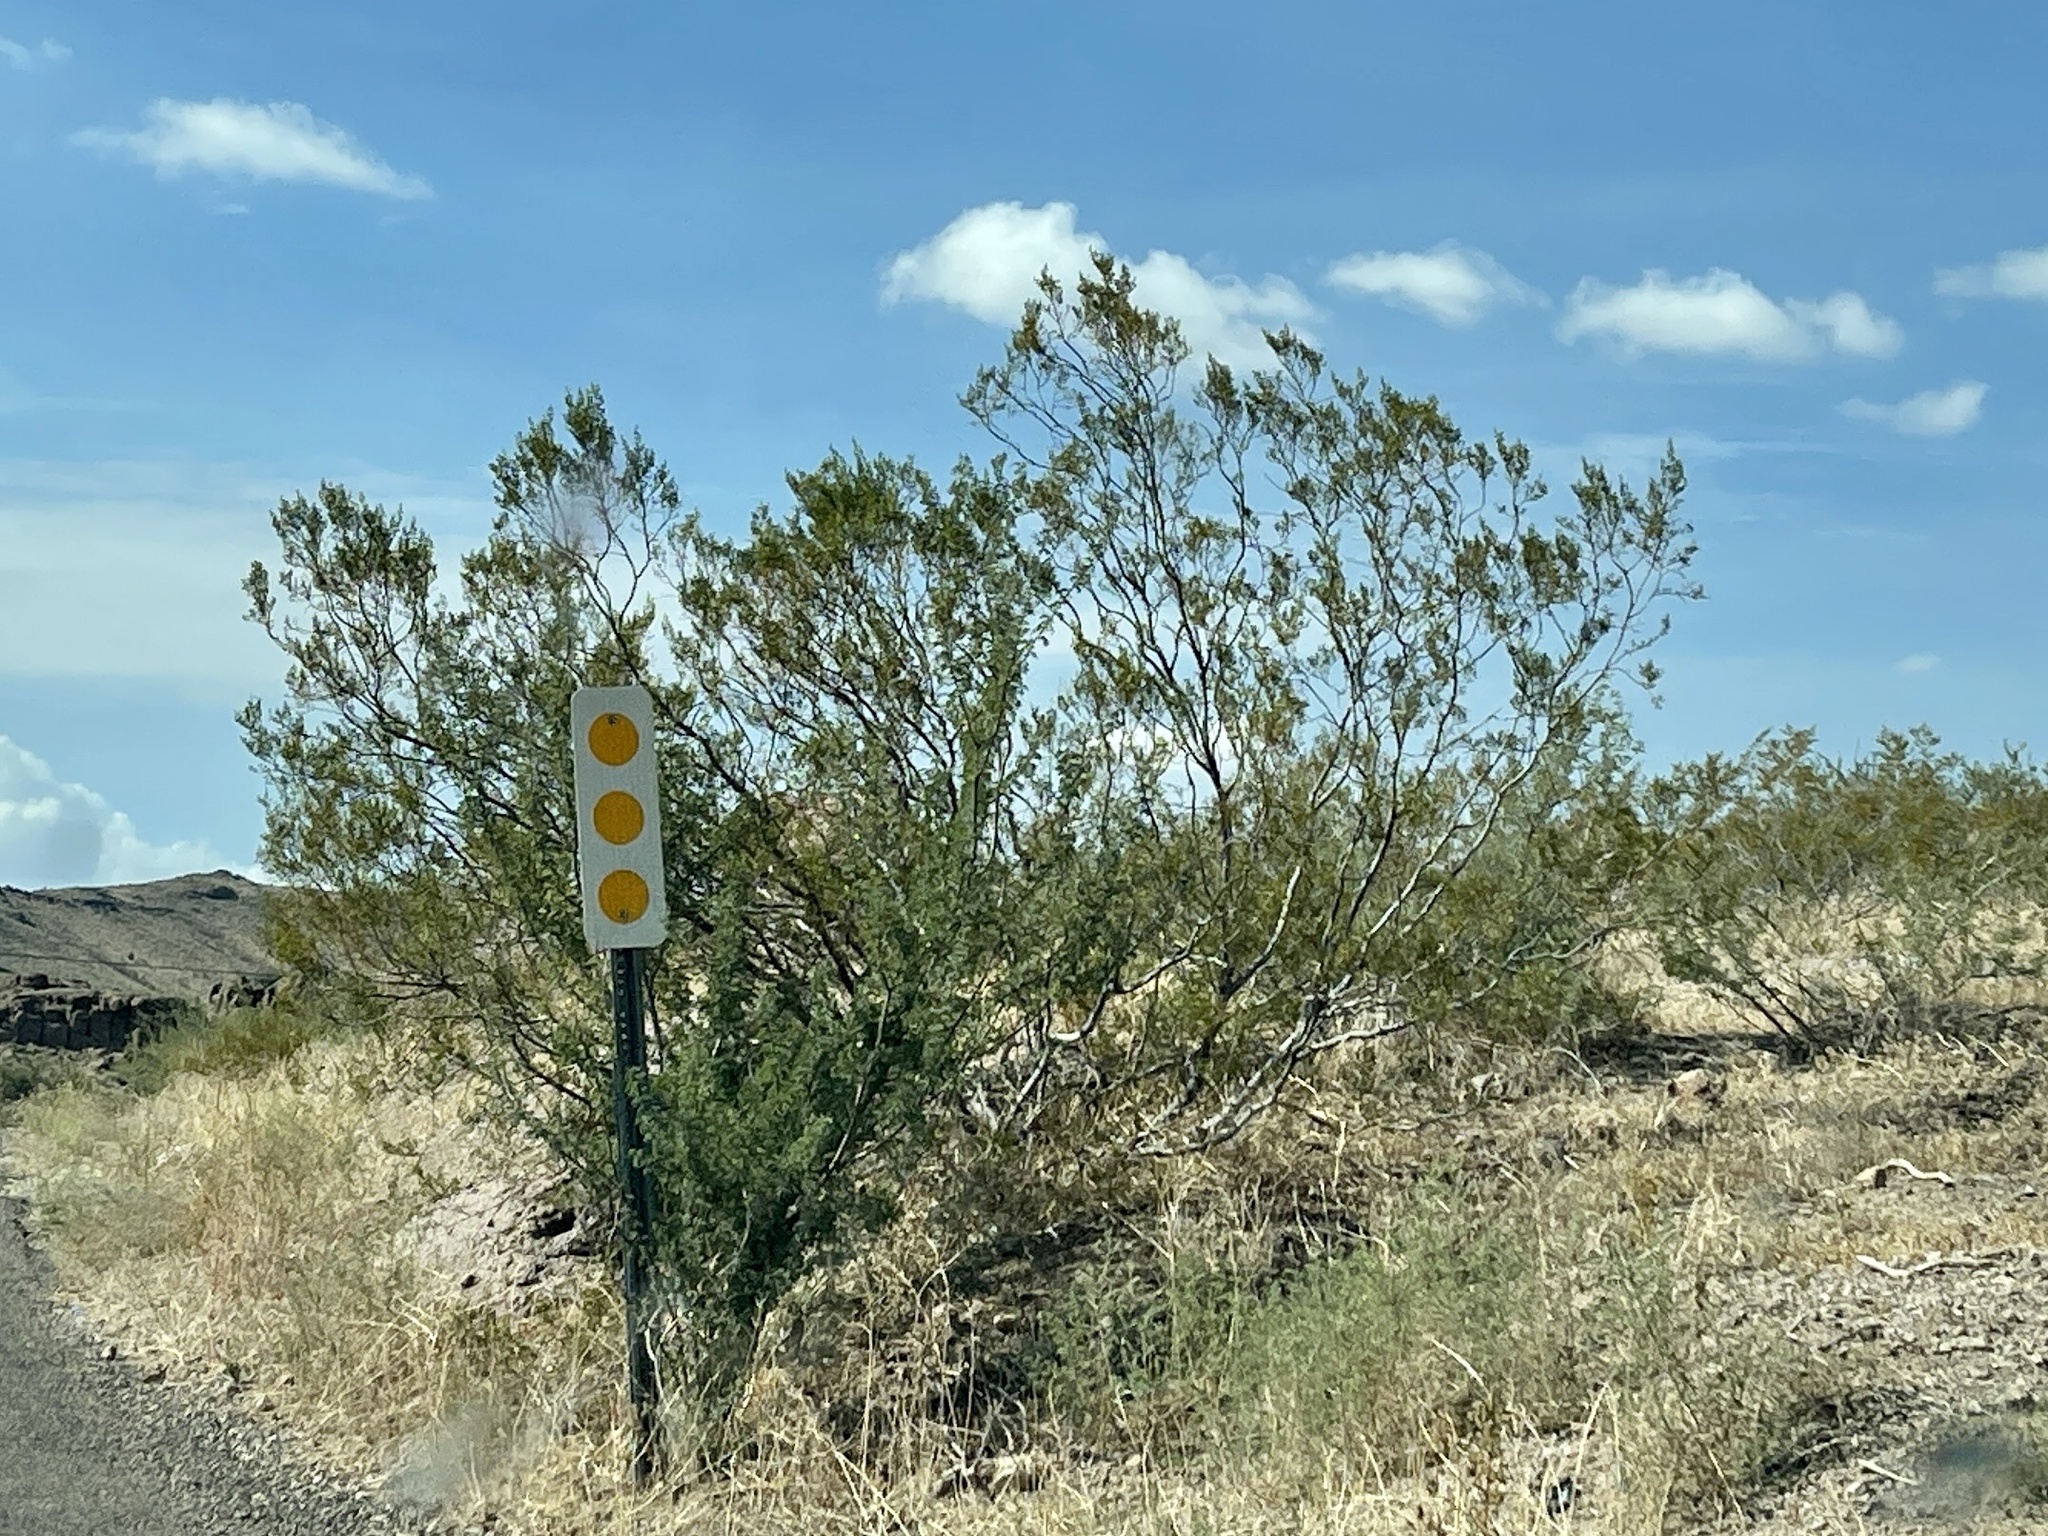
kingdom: Plantae
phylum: Tracheophyta
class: Magnoliopsida
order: Zygophyllales
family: Zygophyllaceae
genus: Larrea
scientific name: Larrea tridentata
